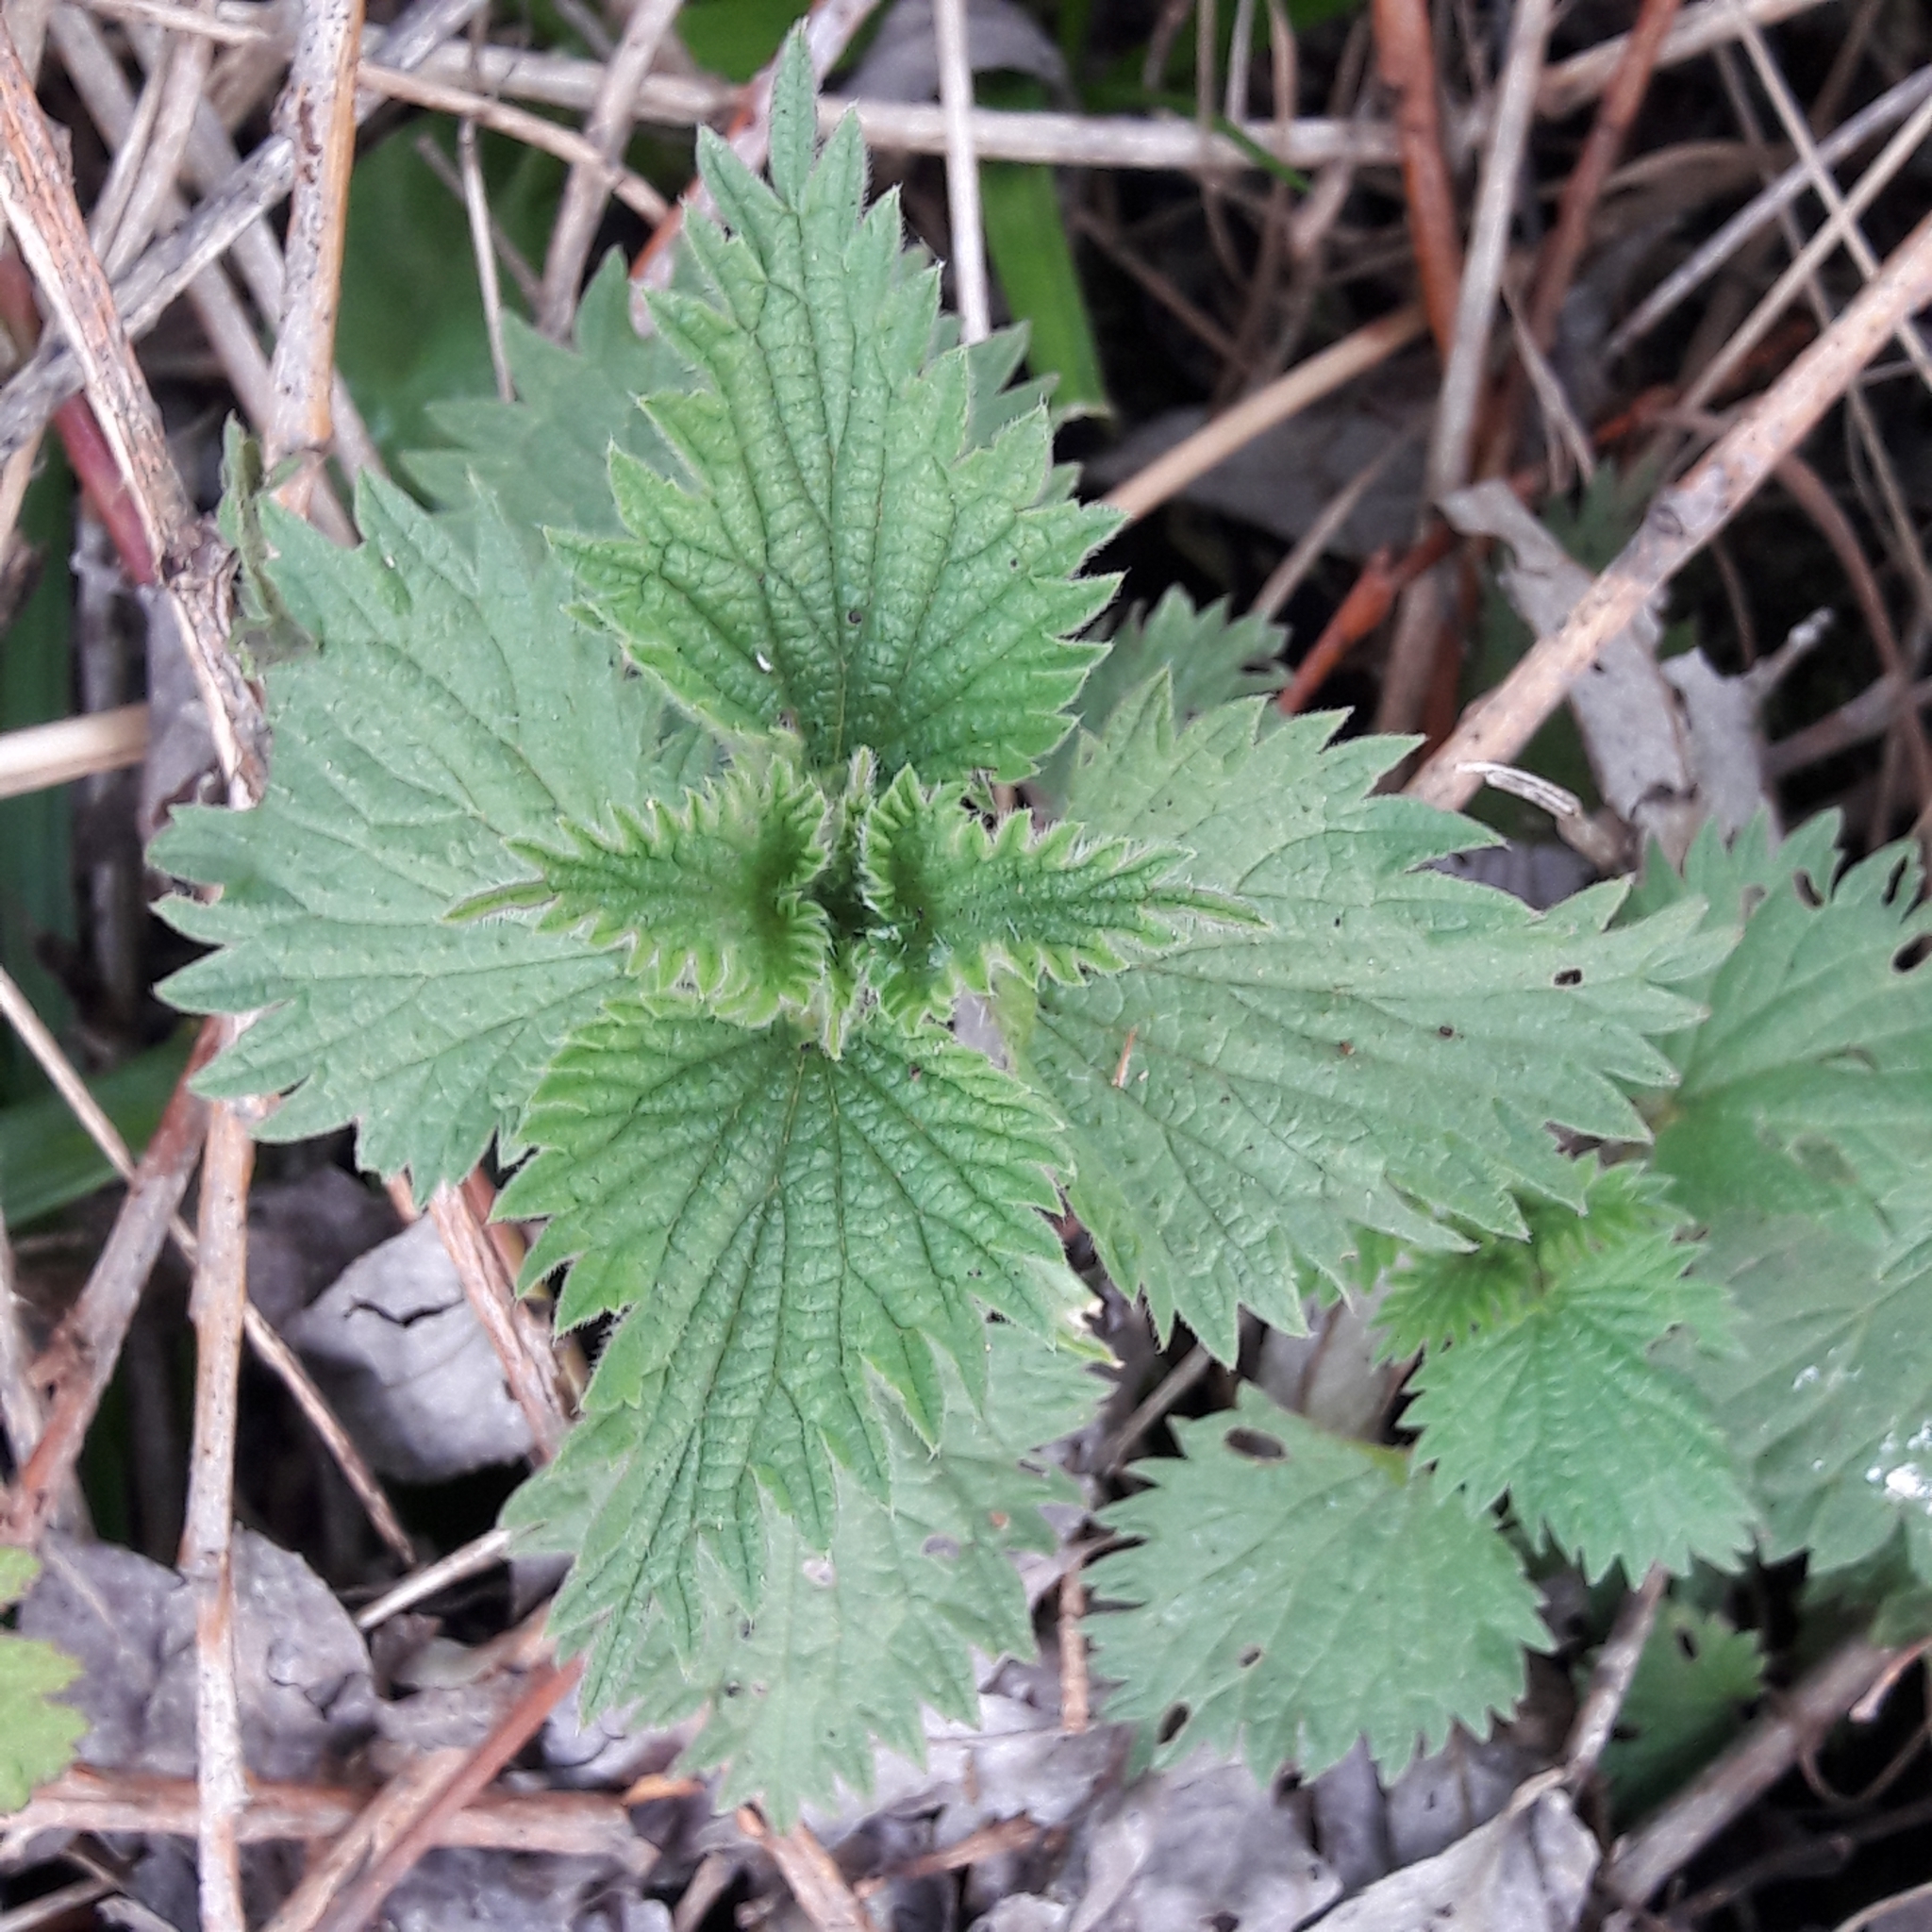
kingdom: Plantae
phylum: Tracheophyta
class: Magnoliopsida
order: Rosales
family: Urticaceae
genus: Urtica
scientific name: Urtica dioica
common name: Common nettle
